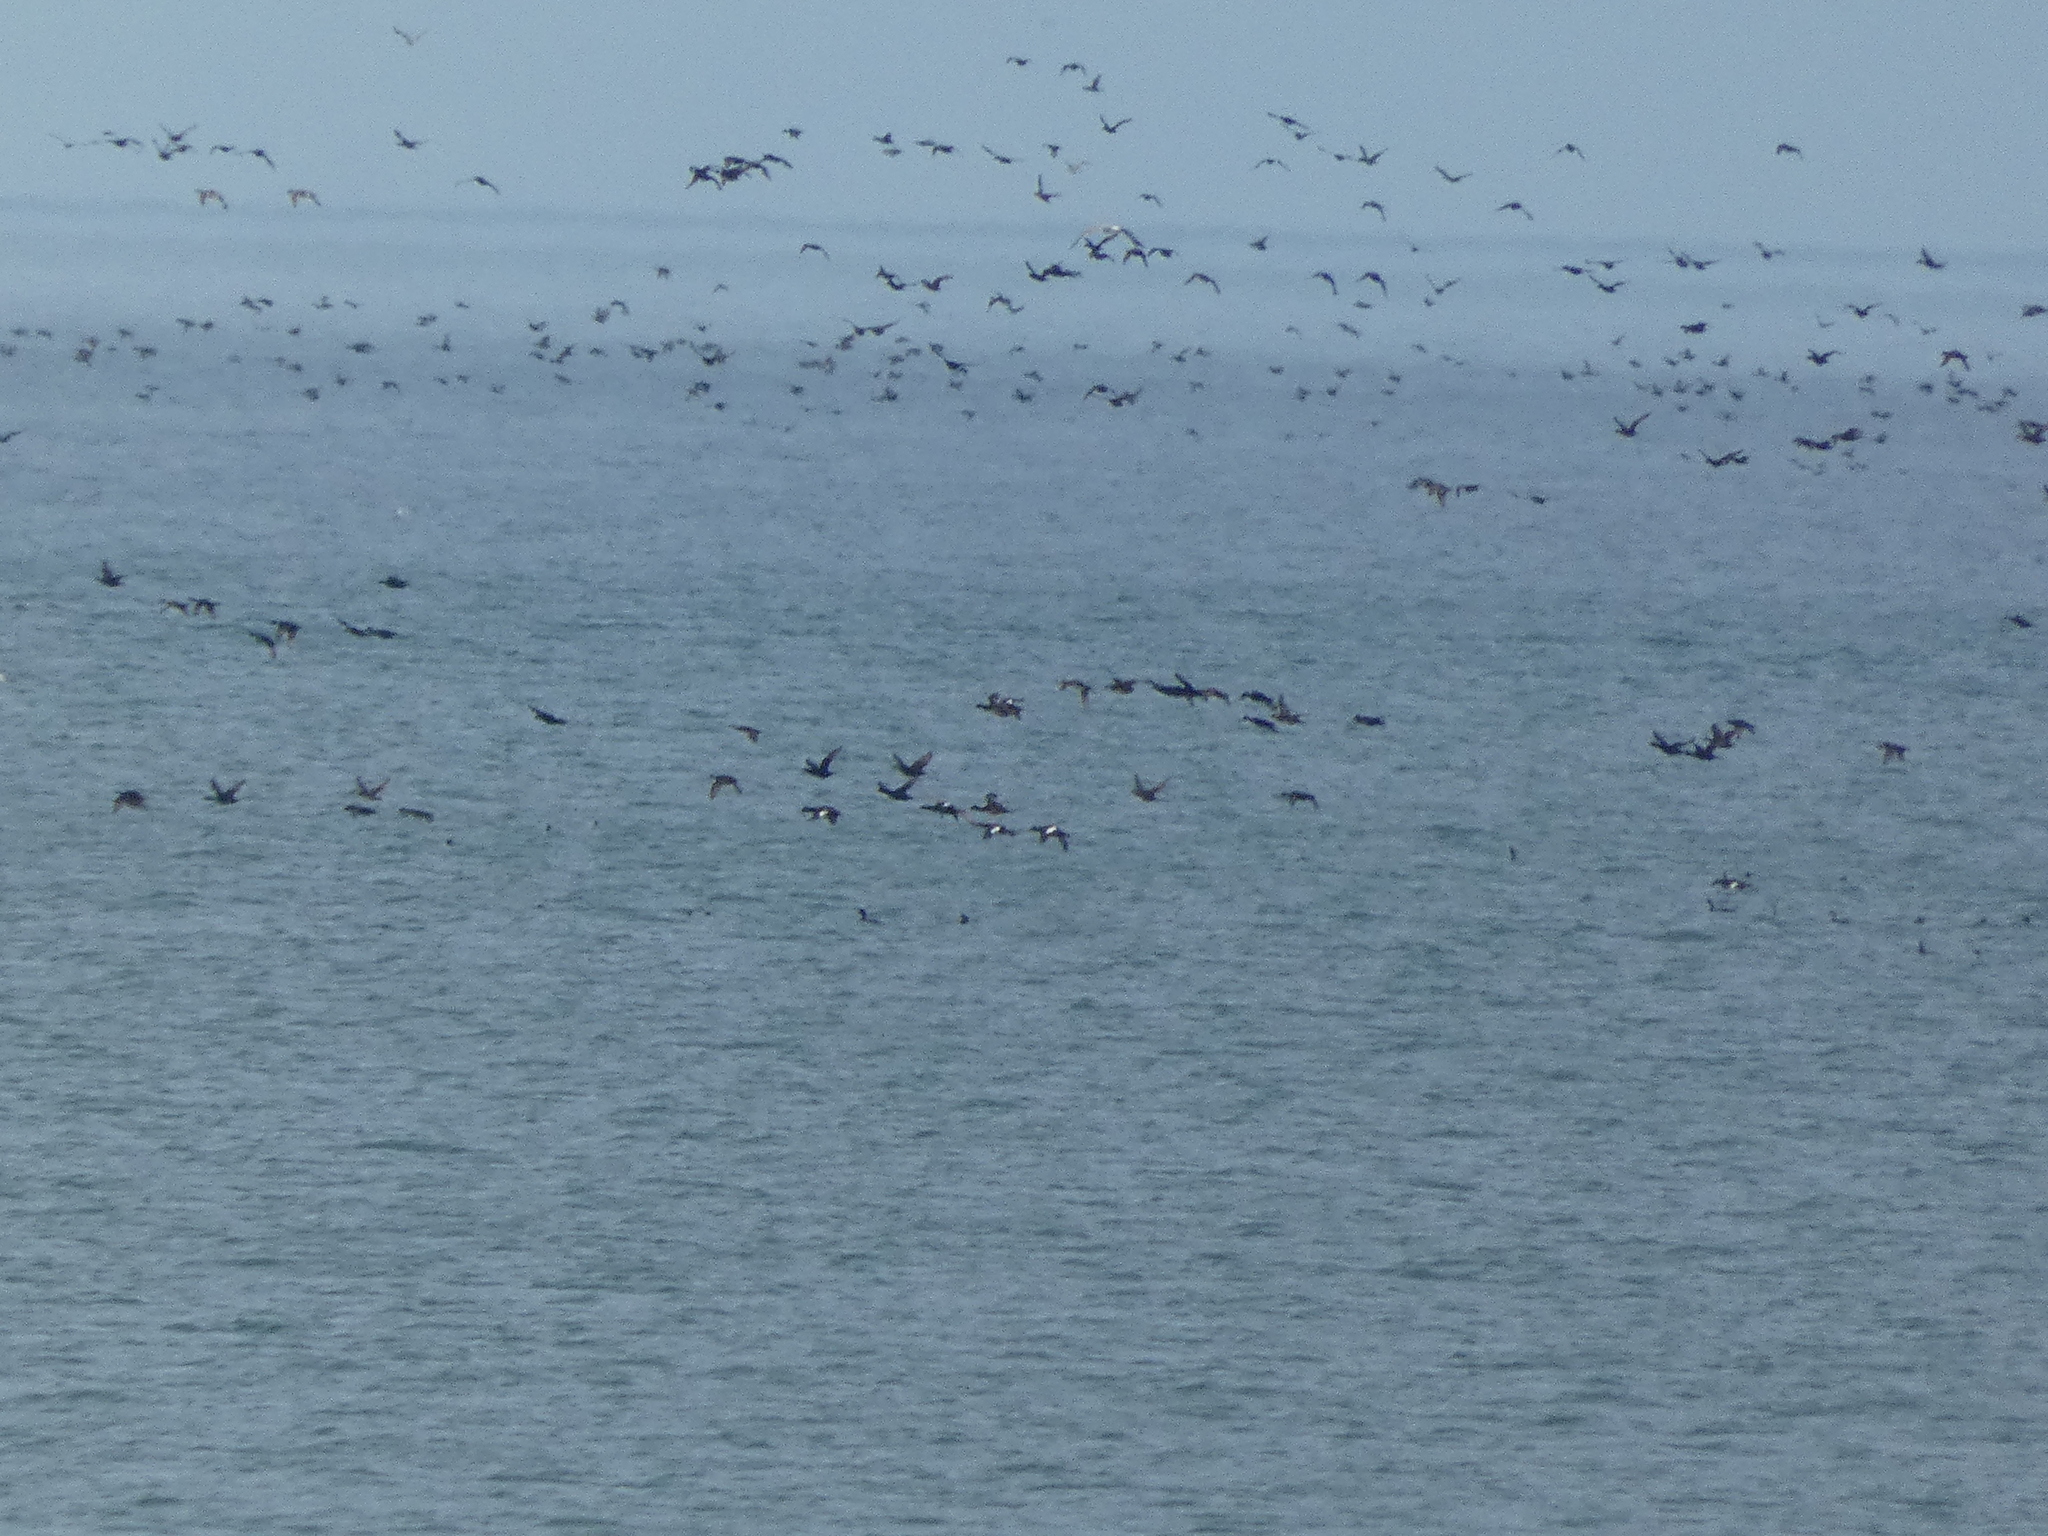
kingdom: Animalia
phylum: Chordata
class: Aves
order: Anseriformes
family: Anatidae
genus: Melanitta
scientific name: Melanitta fusca
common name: Velvet scoter
